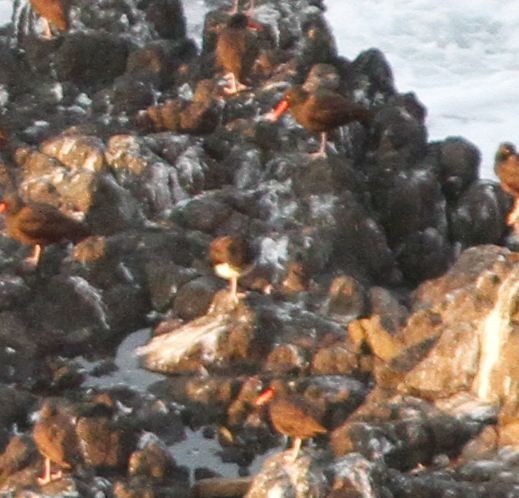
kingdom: Animalia
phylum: Chordata
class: Aves
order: Charadriiformes
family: Haematopodidae
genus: Haematopus
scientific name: Haematopus
